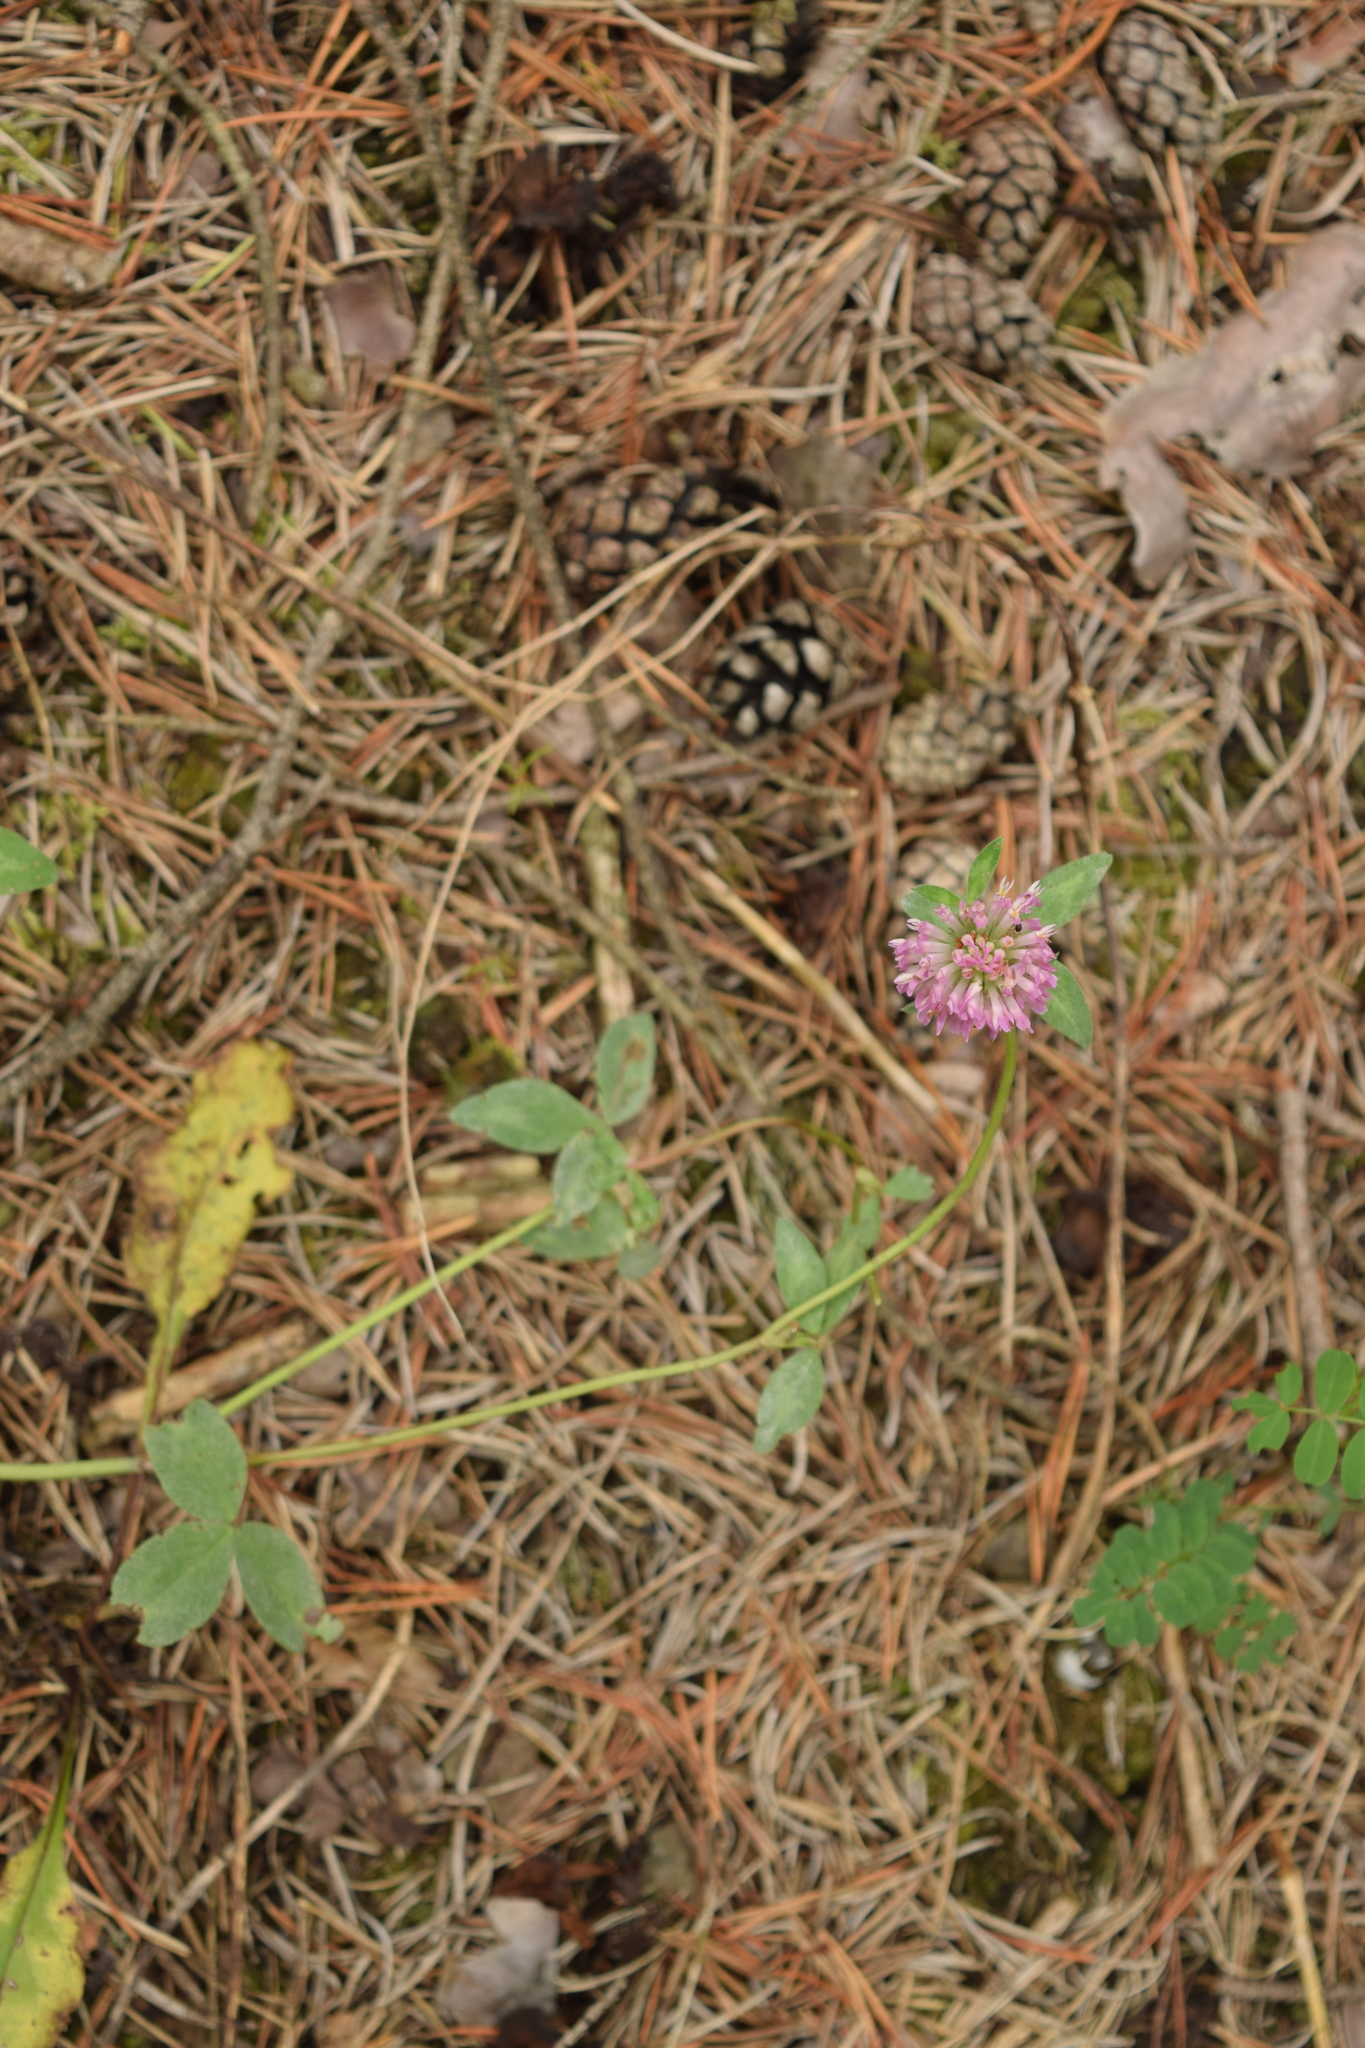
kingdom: Plantae
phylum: Tracheophyta
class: Magnoliopsida
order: Fabales
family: Fabaceae
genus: Trifolium
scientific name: Trifolium pratense
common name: Red clover
